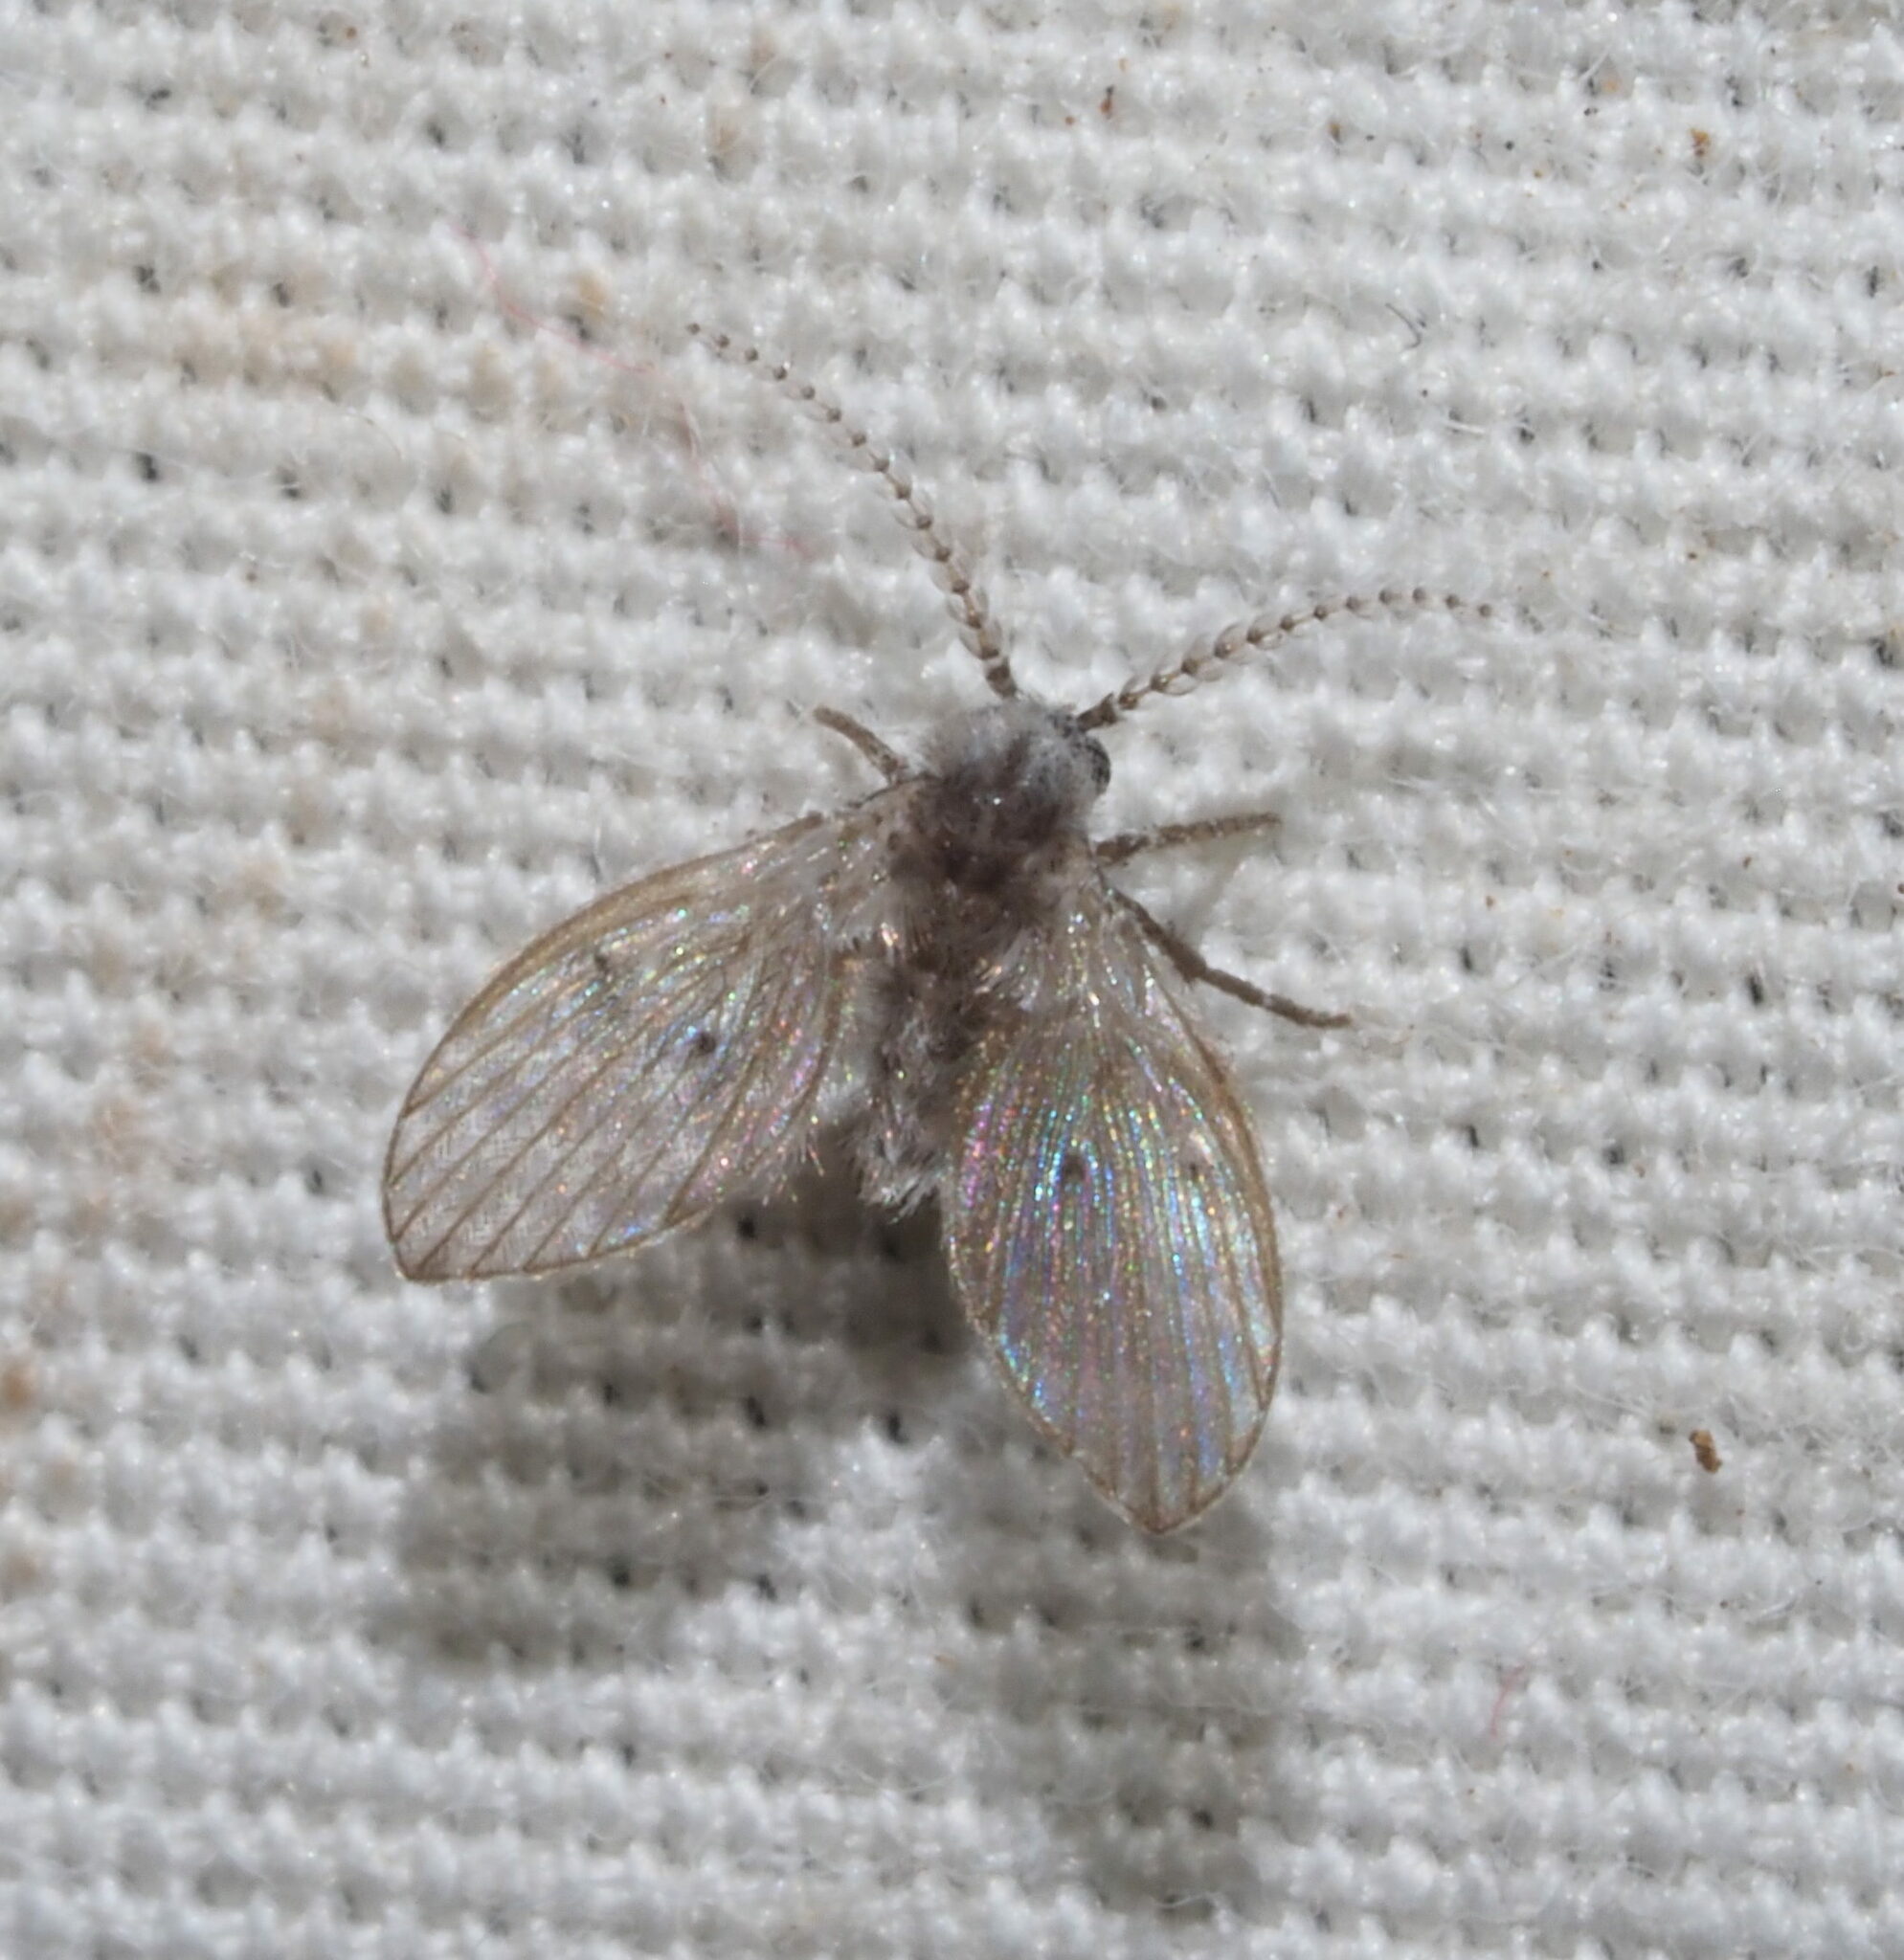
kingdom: Animalia
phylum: Arthropoda
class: Insecta
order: Diptera
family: Psychodidae
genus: Clogmia
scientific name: Clogmia albipunctatus
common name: White-spotted moth fly
